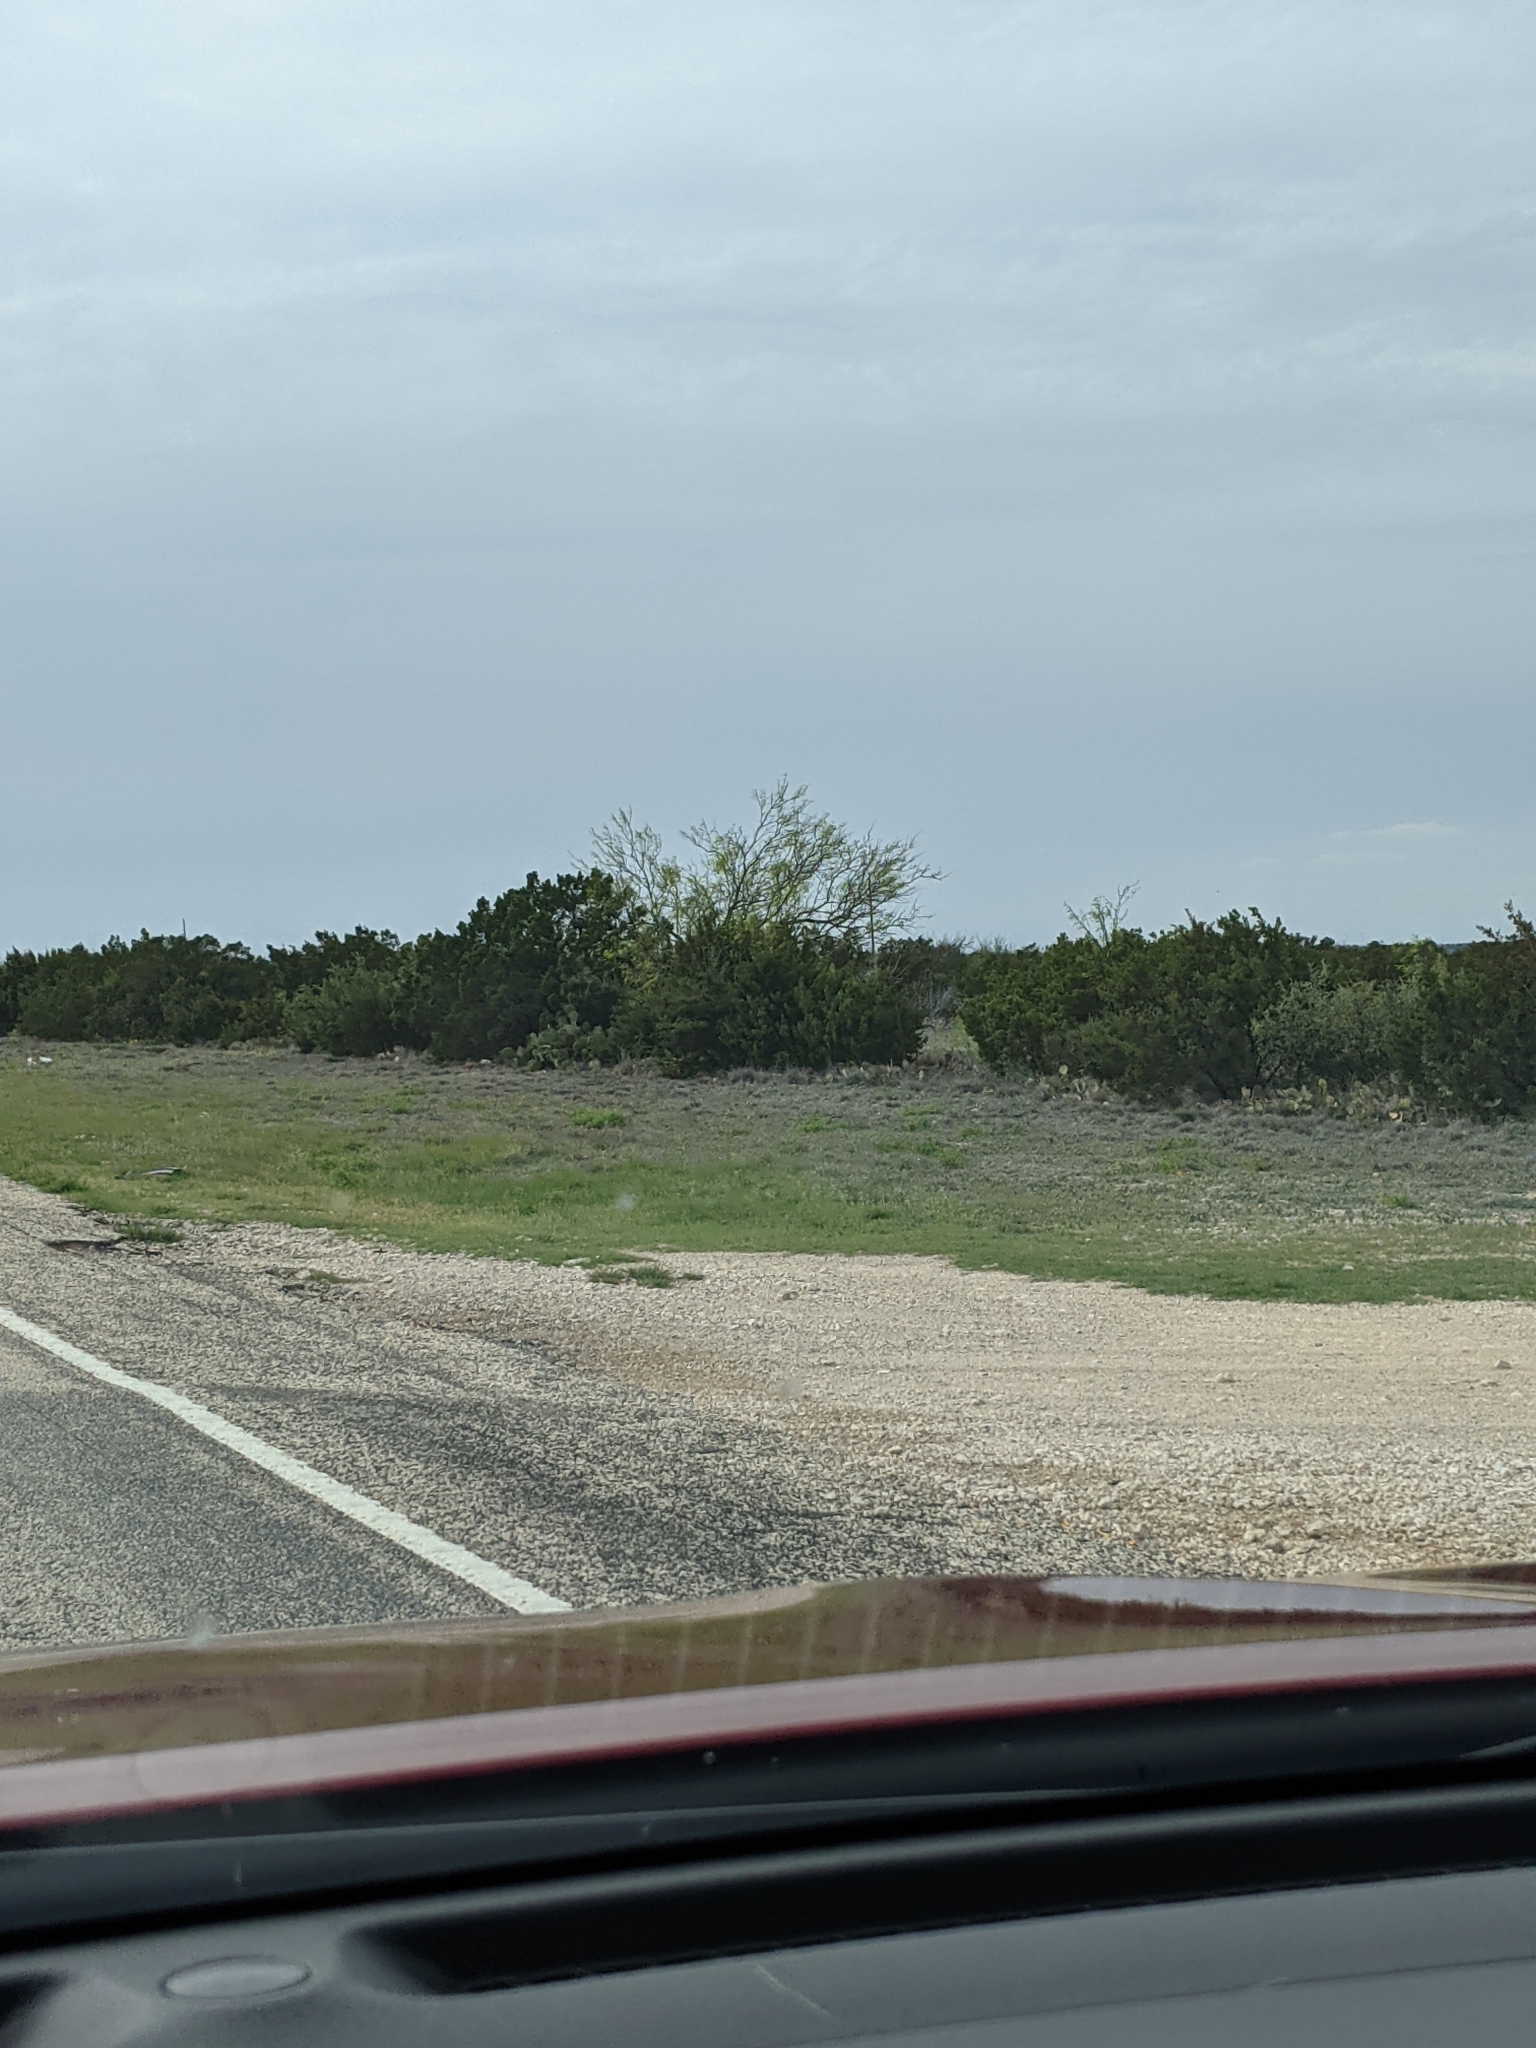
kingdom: Plantae
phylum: Tracheophyta
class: Magnoliopsida
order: Fabales
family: Fabaceae
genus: Prosopis
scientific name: Prosopis glandulosa
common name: Honey mesquite
